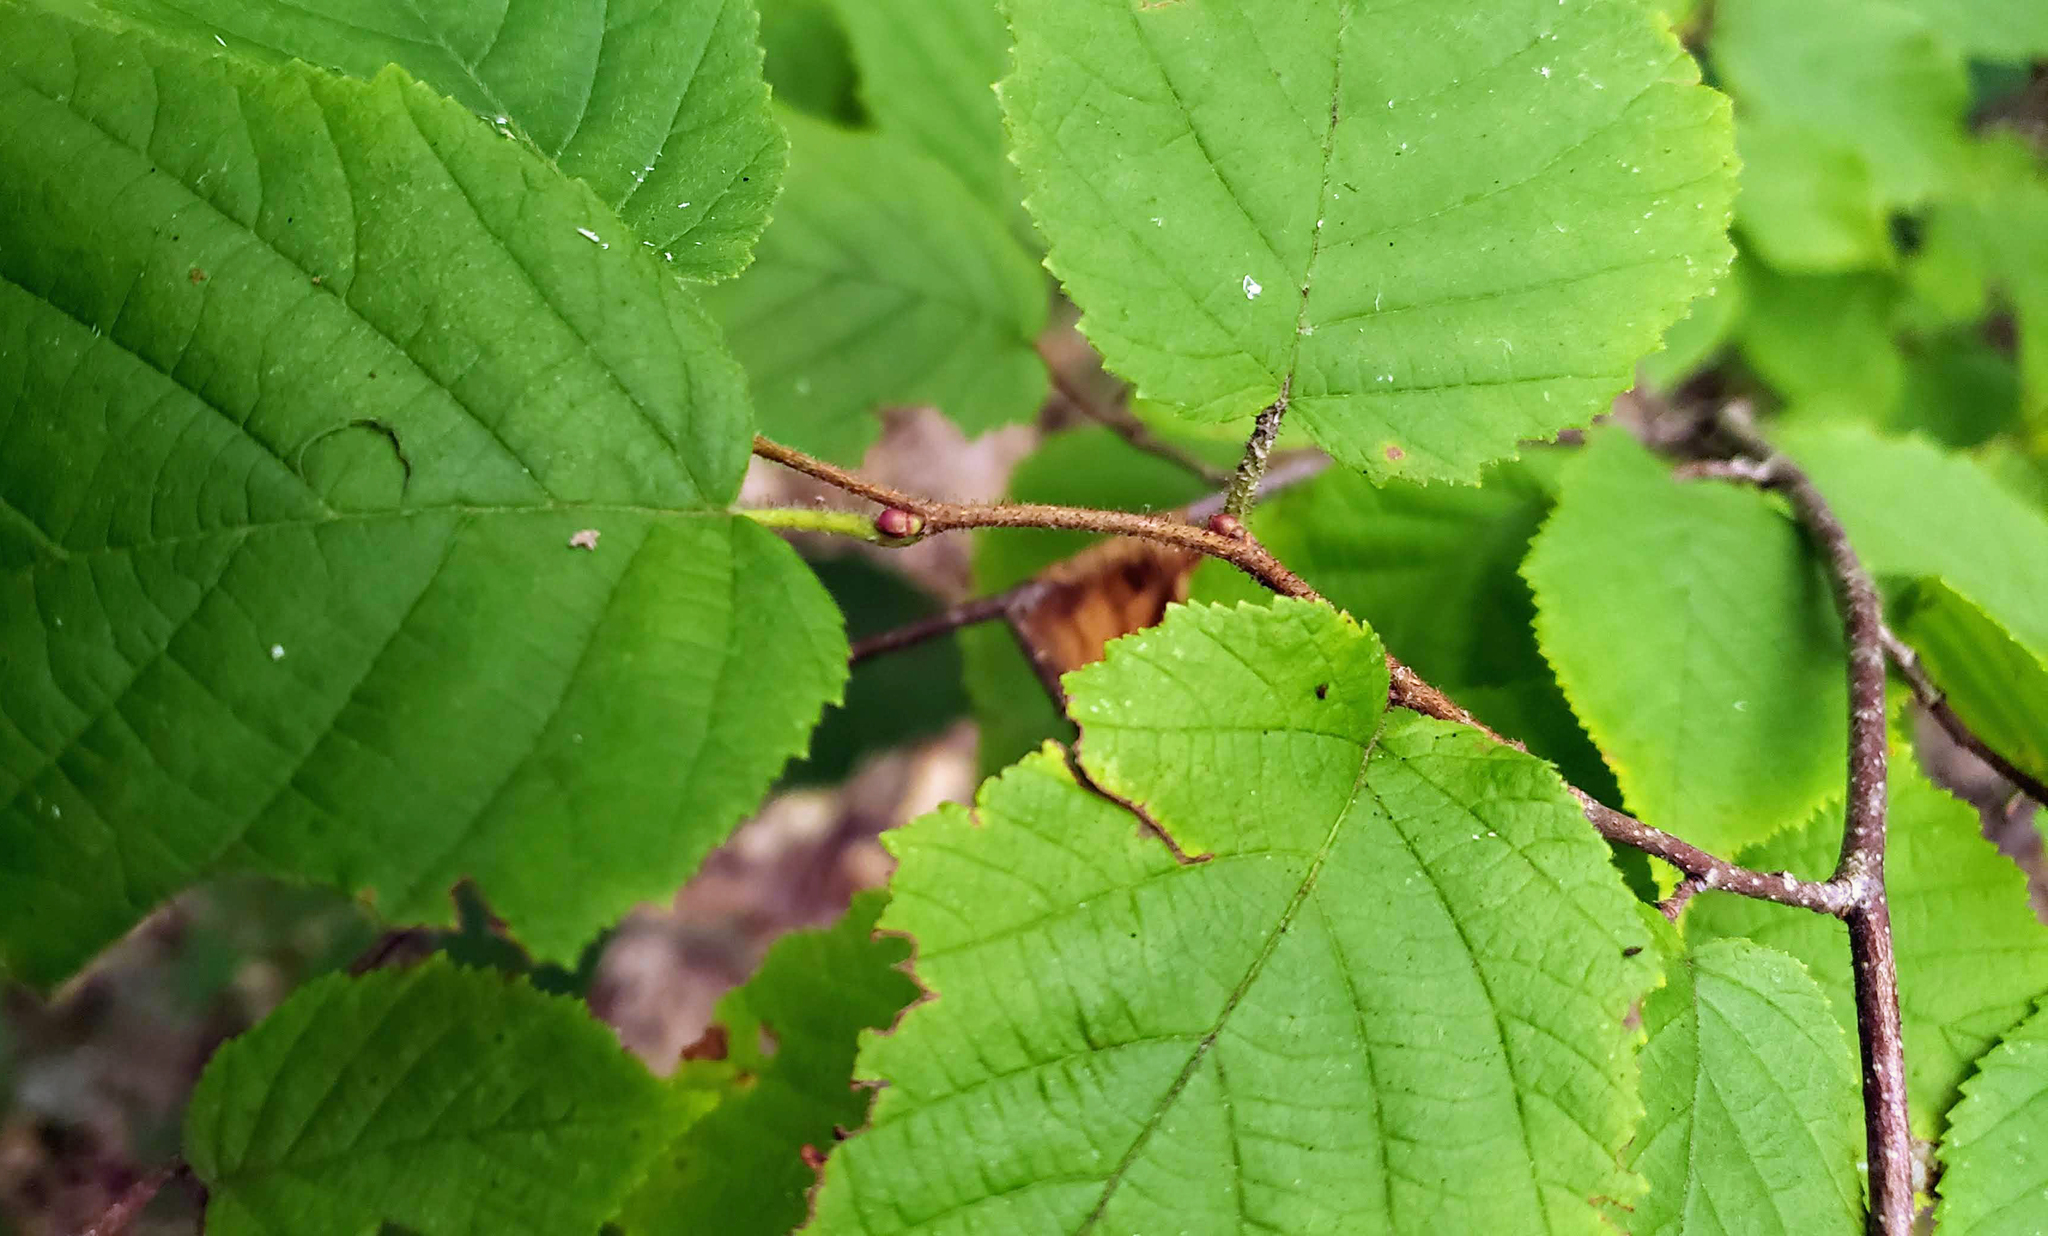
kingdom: Plantae
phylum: Tracheophyta
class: Magnoliopsida
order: Fagales
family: Betulaceae
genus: Corylus
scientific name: Corylus americana
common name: American hazel
